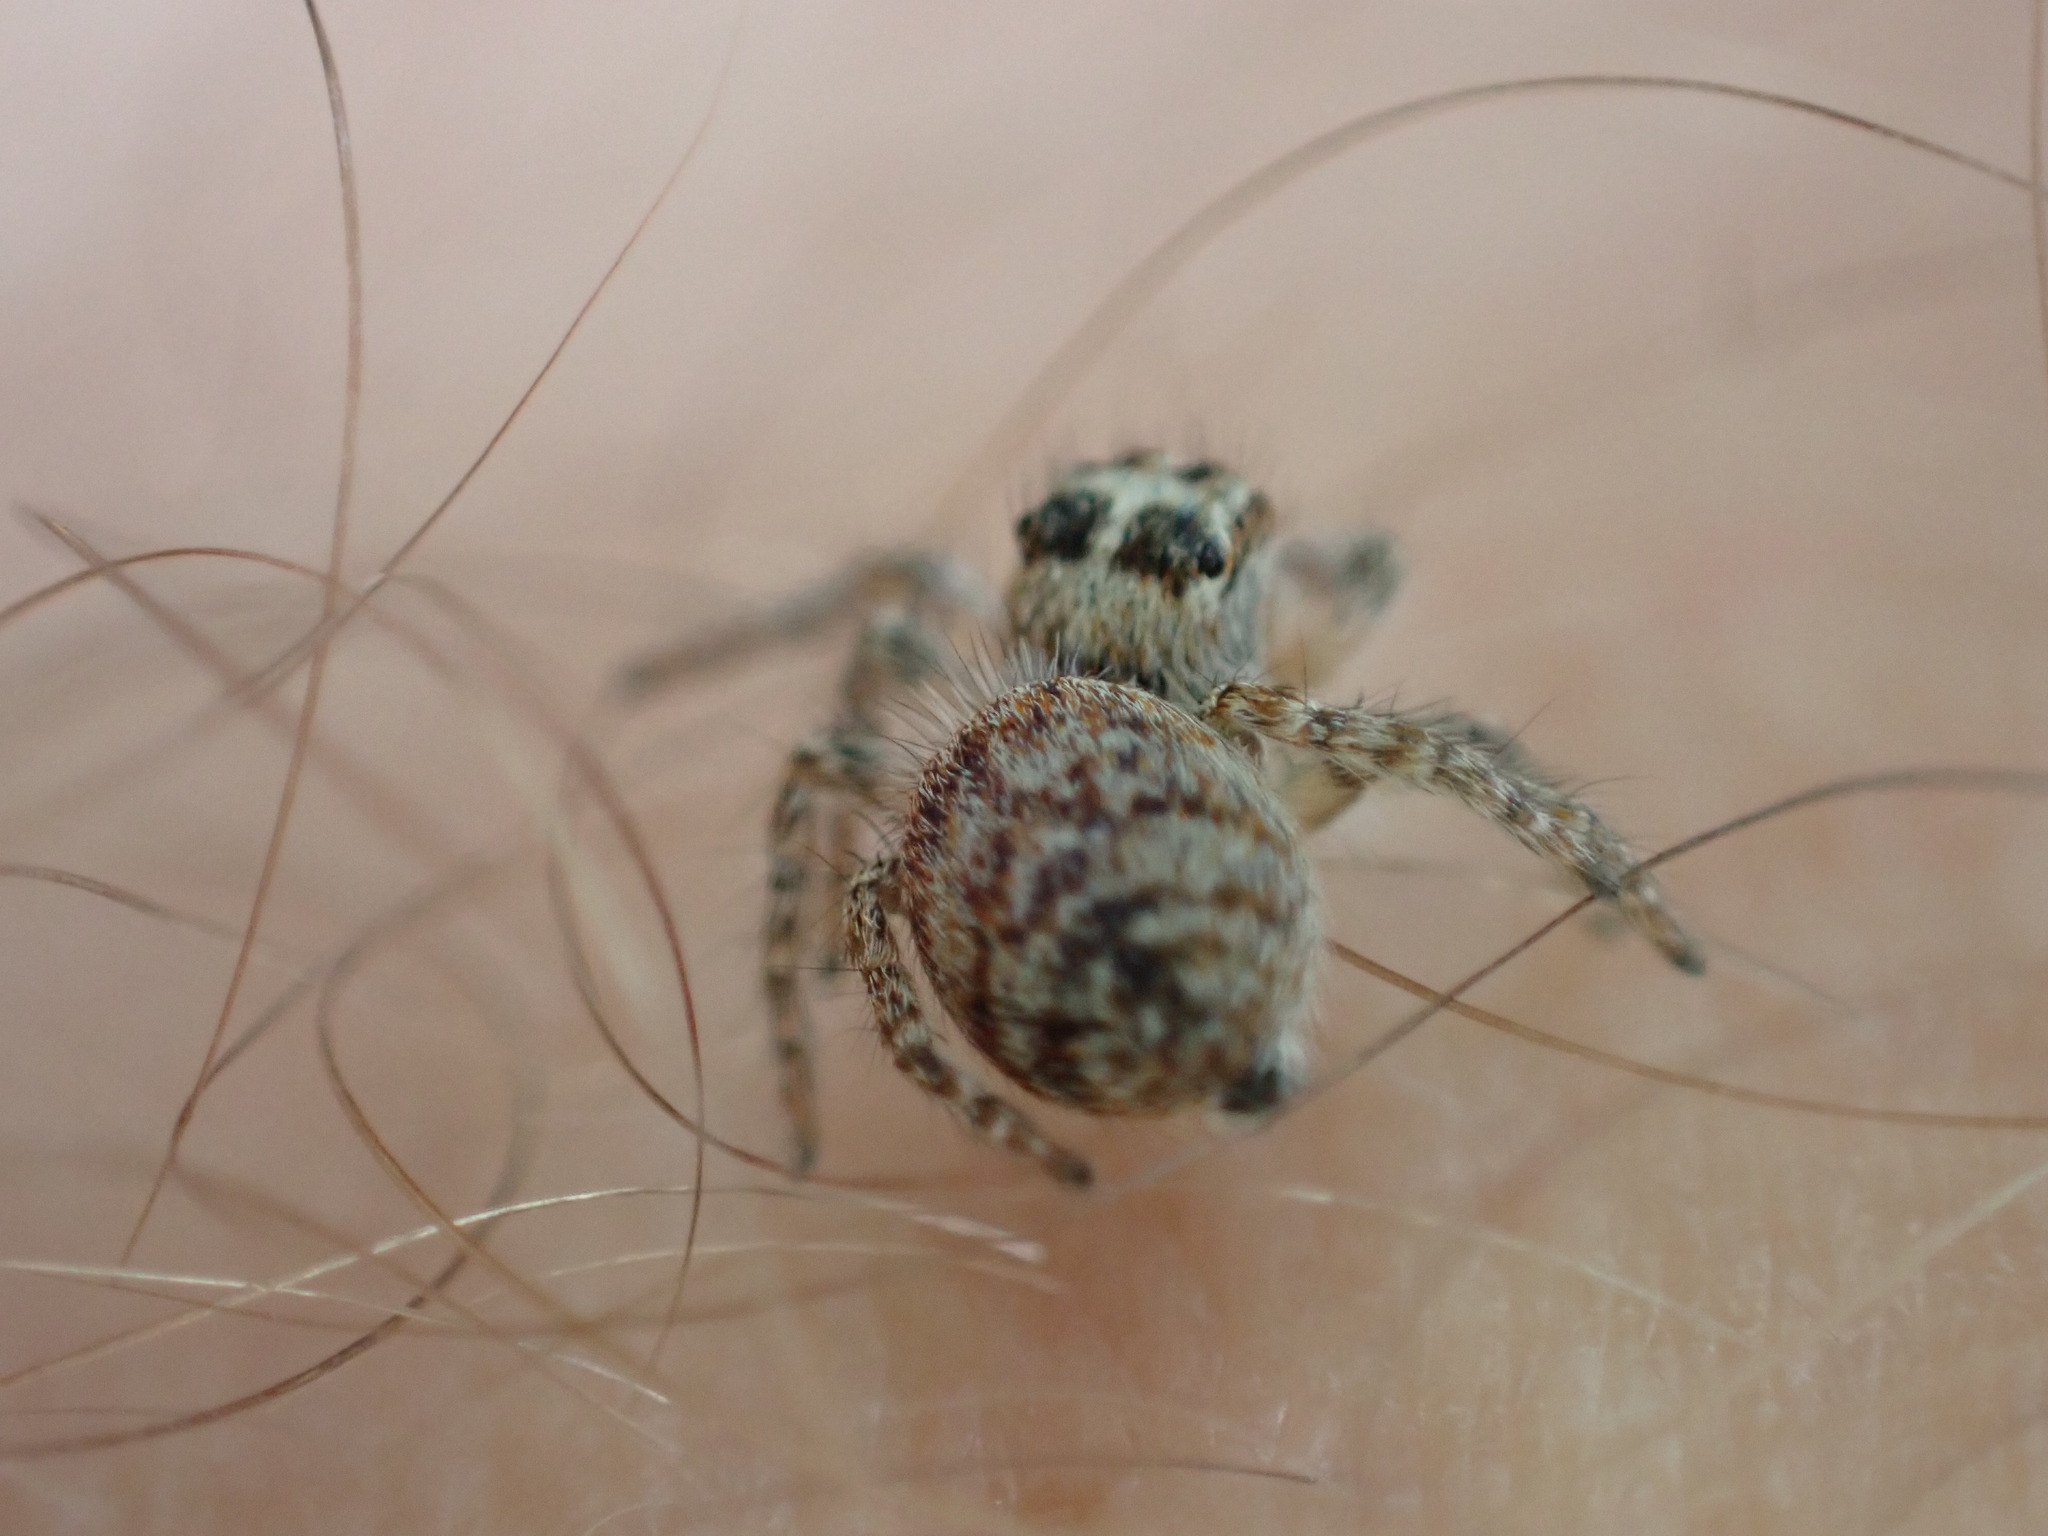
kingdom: Animalia
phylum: Arthropoda
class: Arachnida
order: Araneae
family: Salticidae
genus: Philaeus
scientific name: Philaeus chrysops
